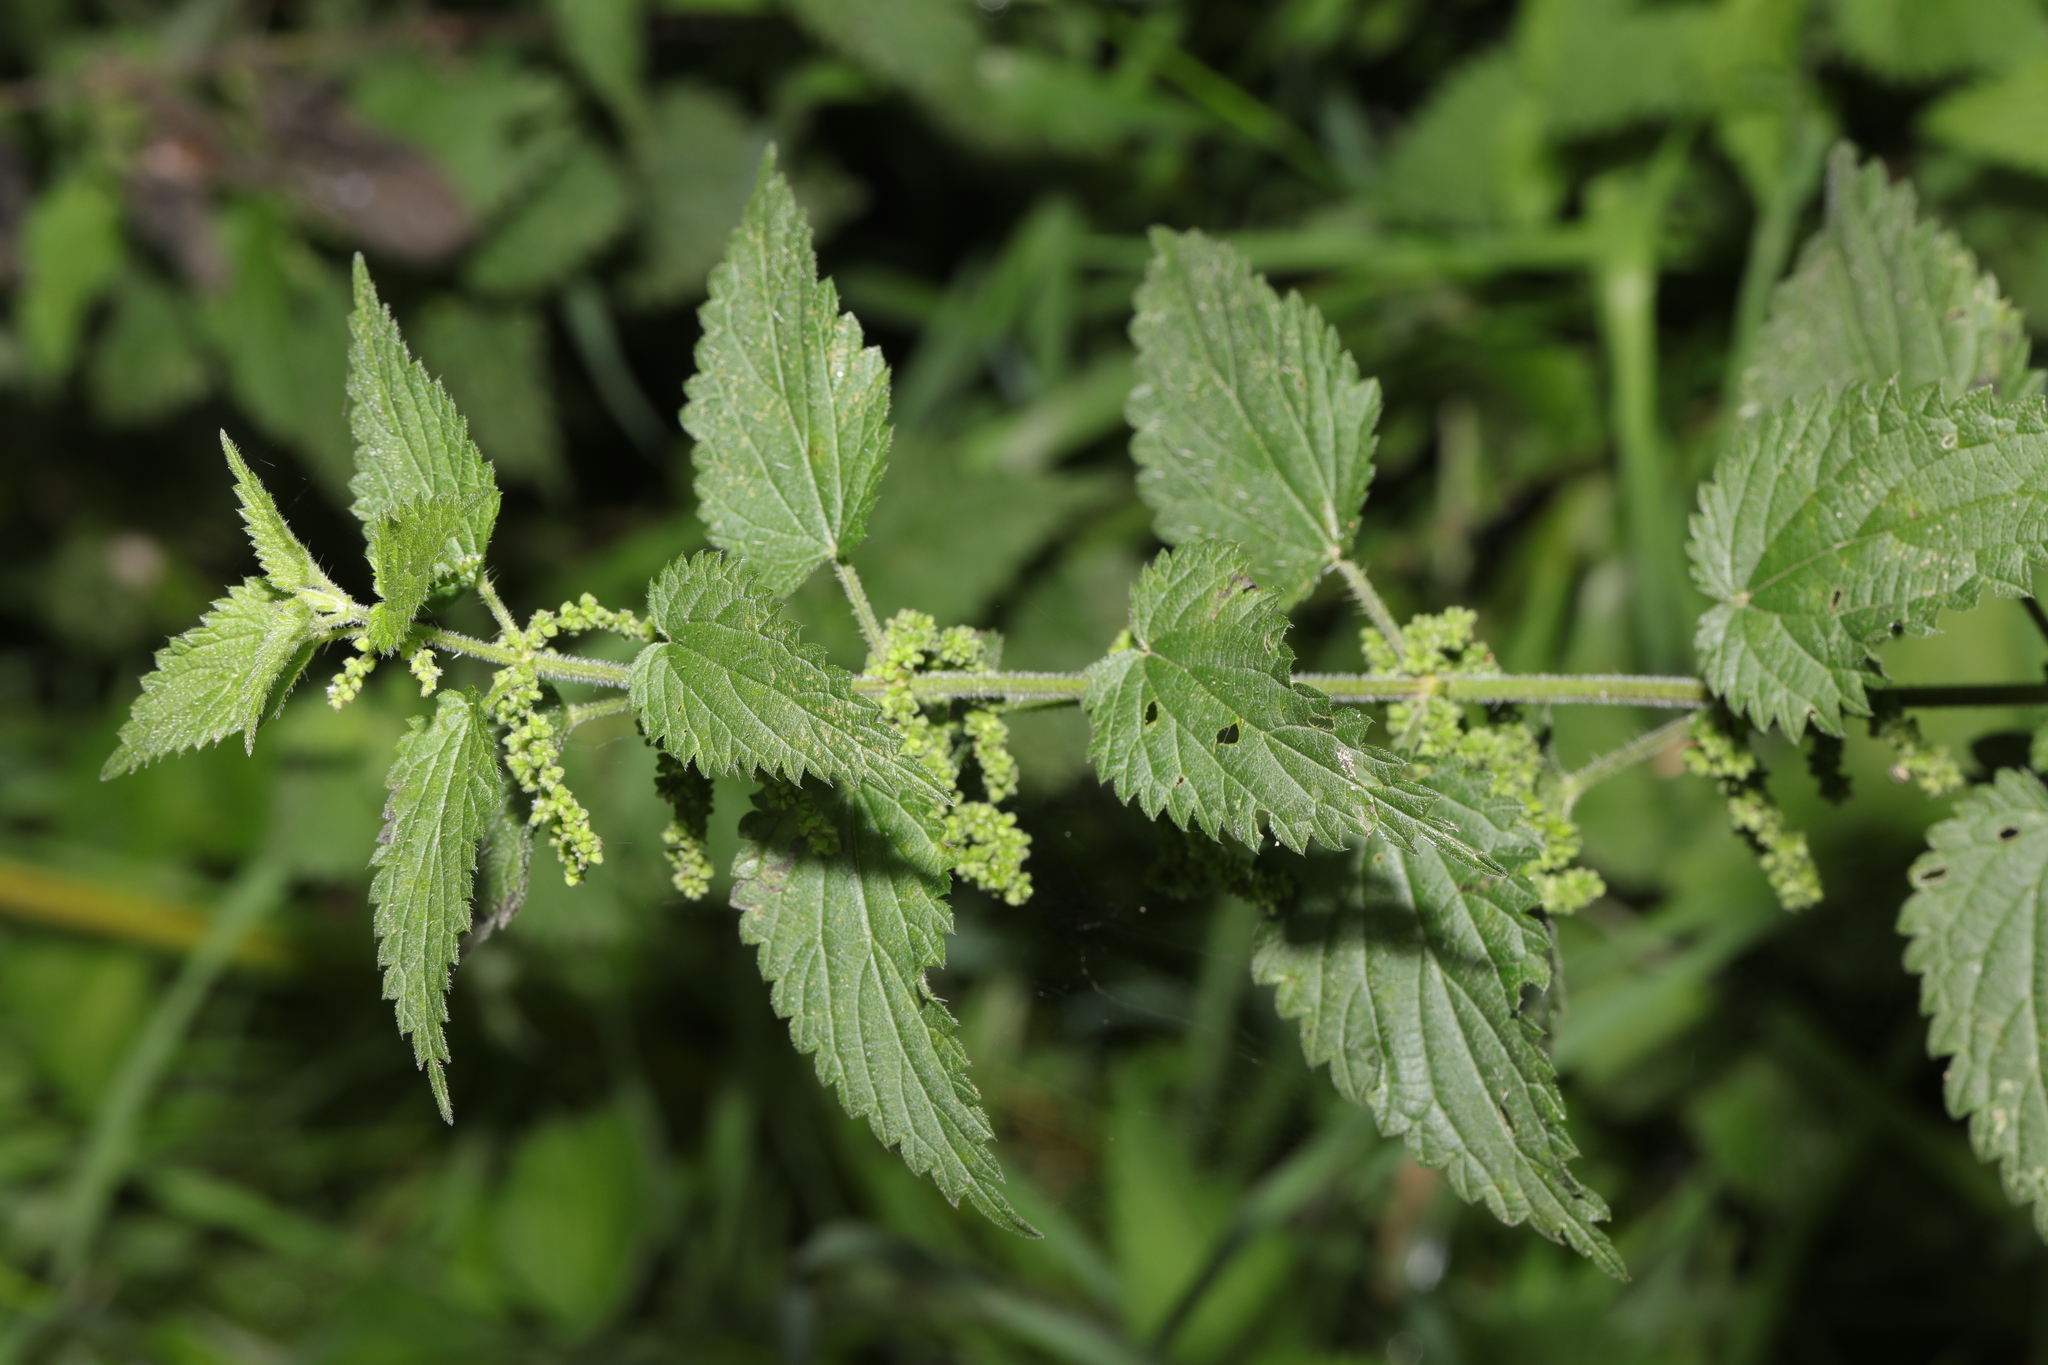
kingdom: Plantae
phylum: Tracheophyta
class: Magnoliopsida
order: Rosales
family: Urticaceae
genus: Urtica
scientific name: Urtica dioica
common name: Common nettle
